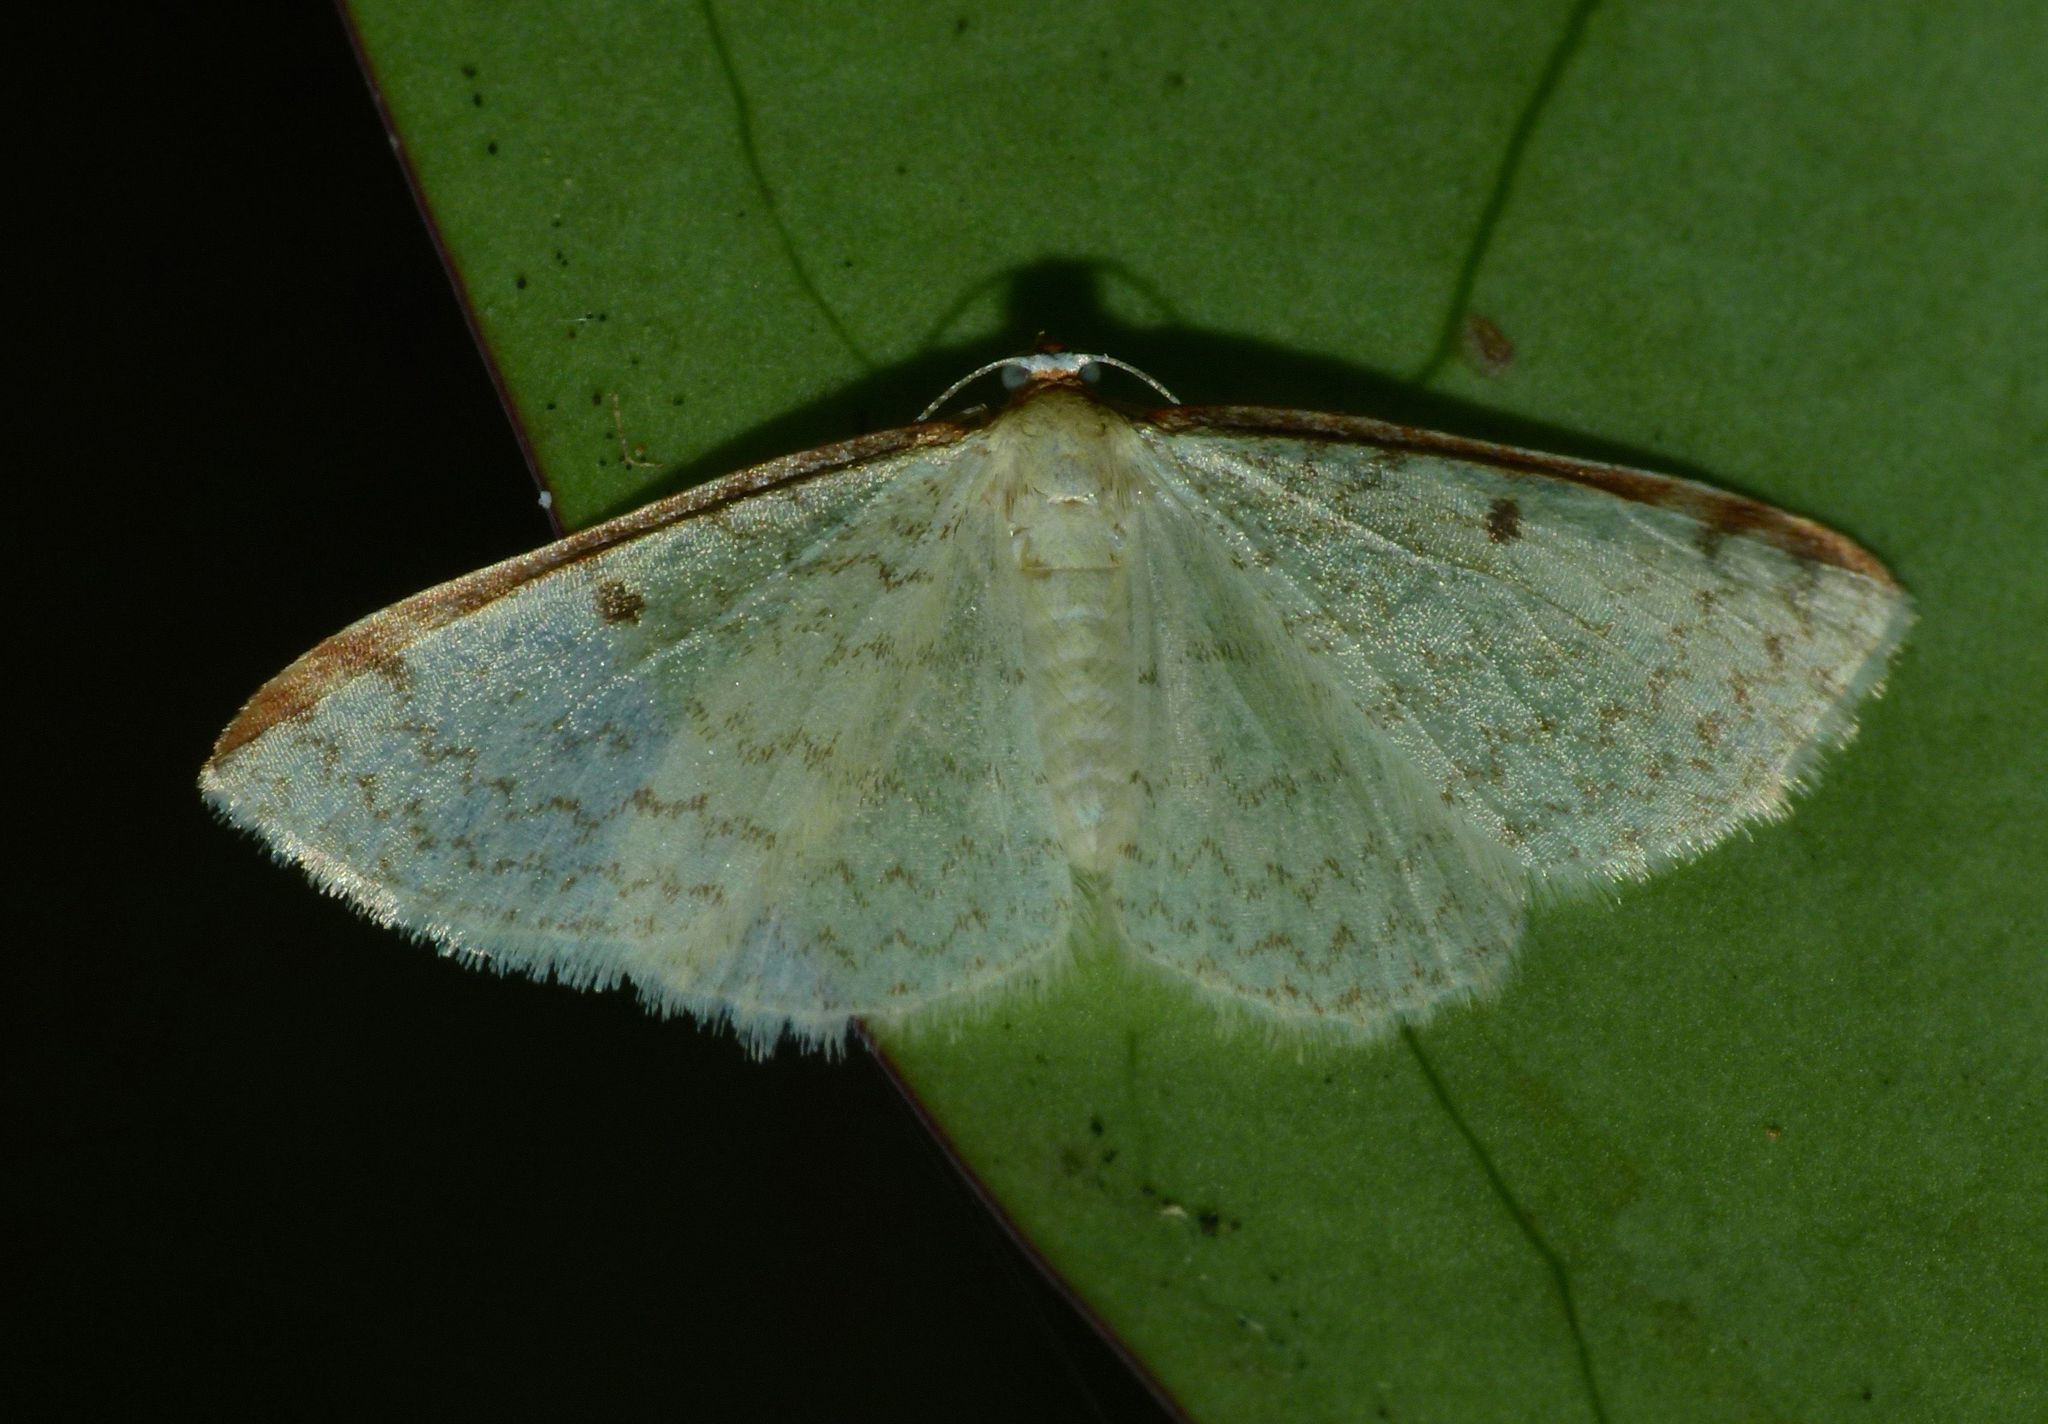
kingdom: Animalia
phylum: Arthropoda
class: Insecta
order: Lepidoptera
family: Geometridae
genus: Epiphryne
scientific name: Epiphryne undosata
